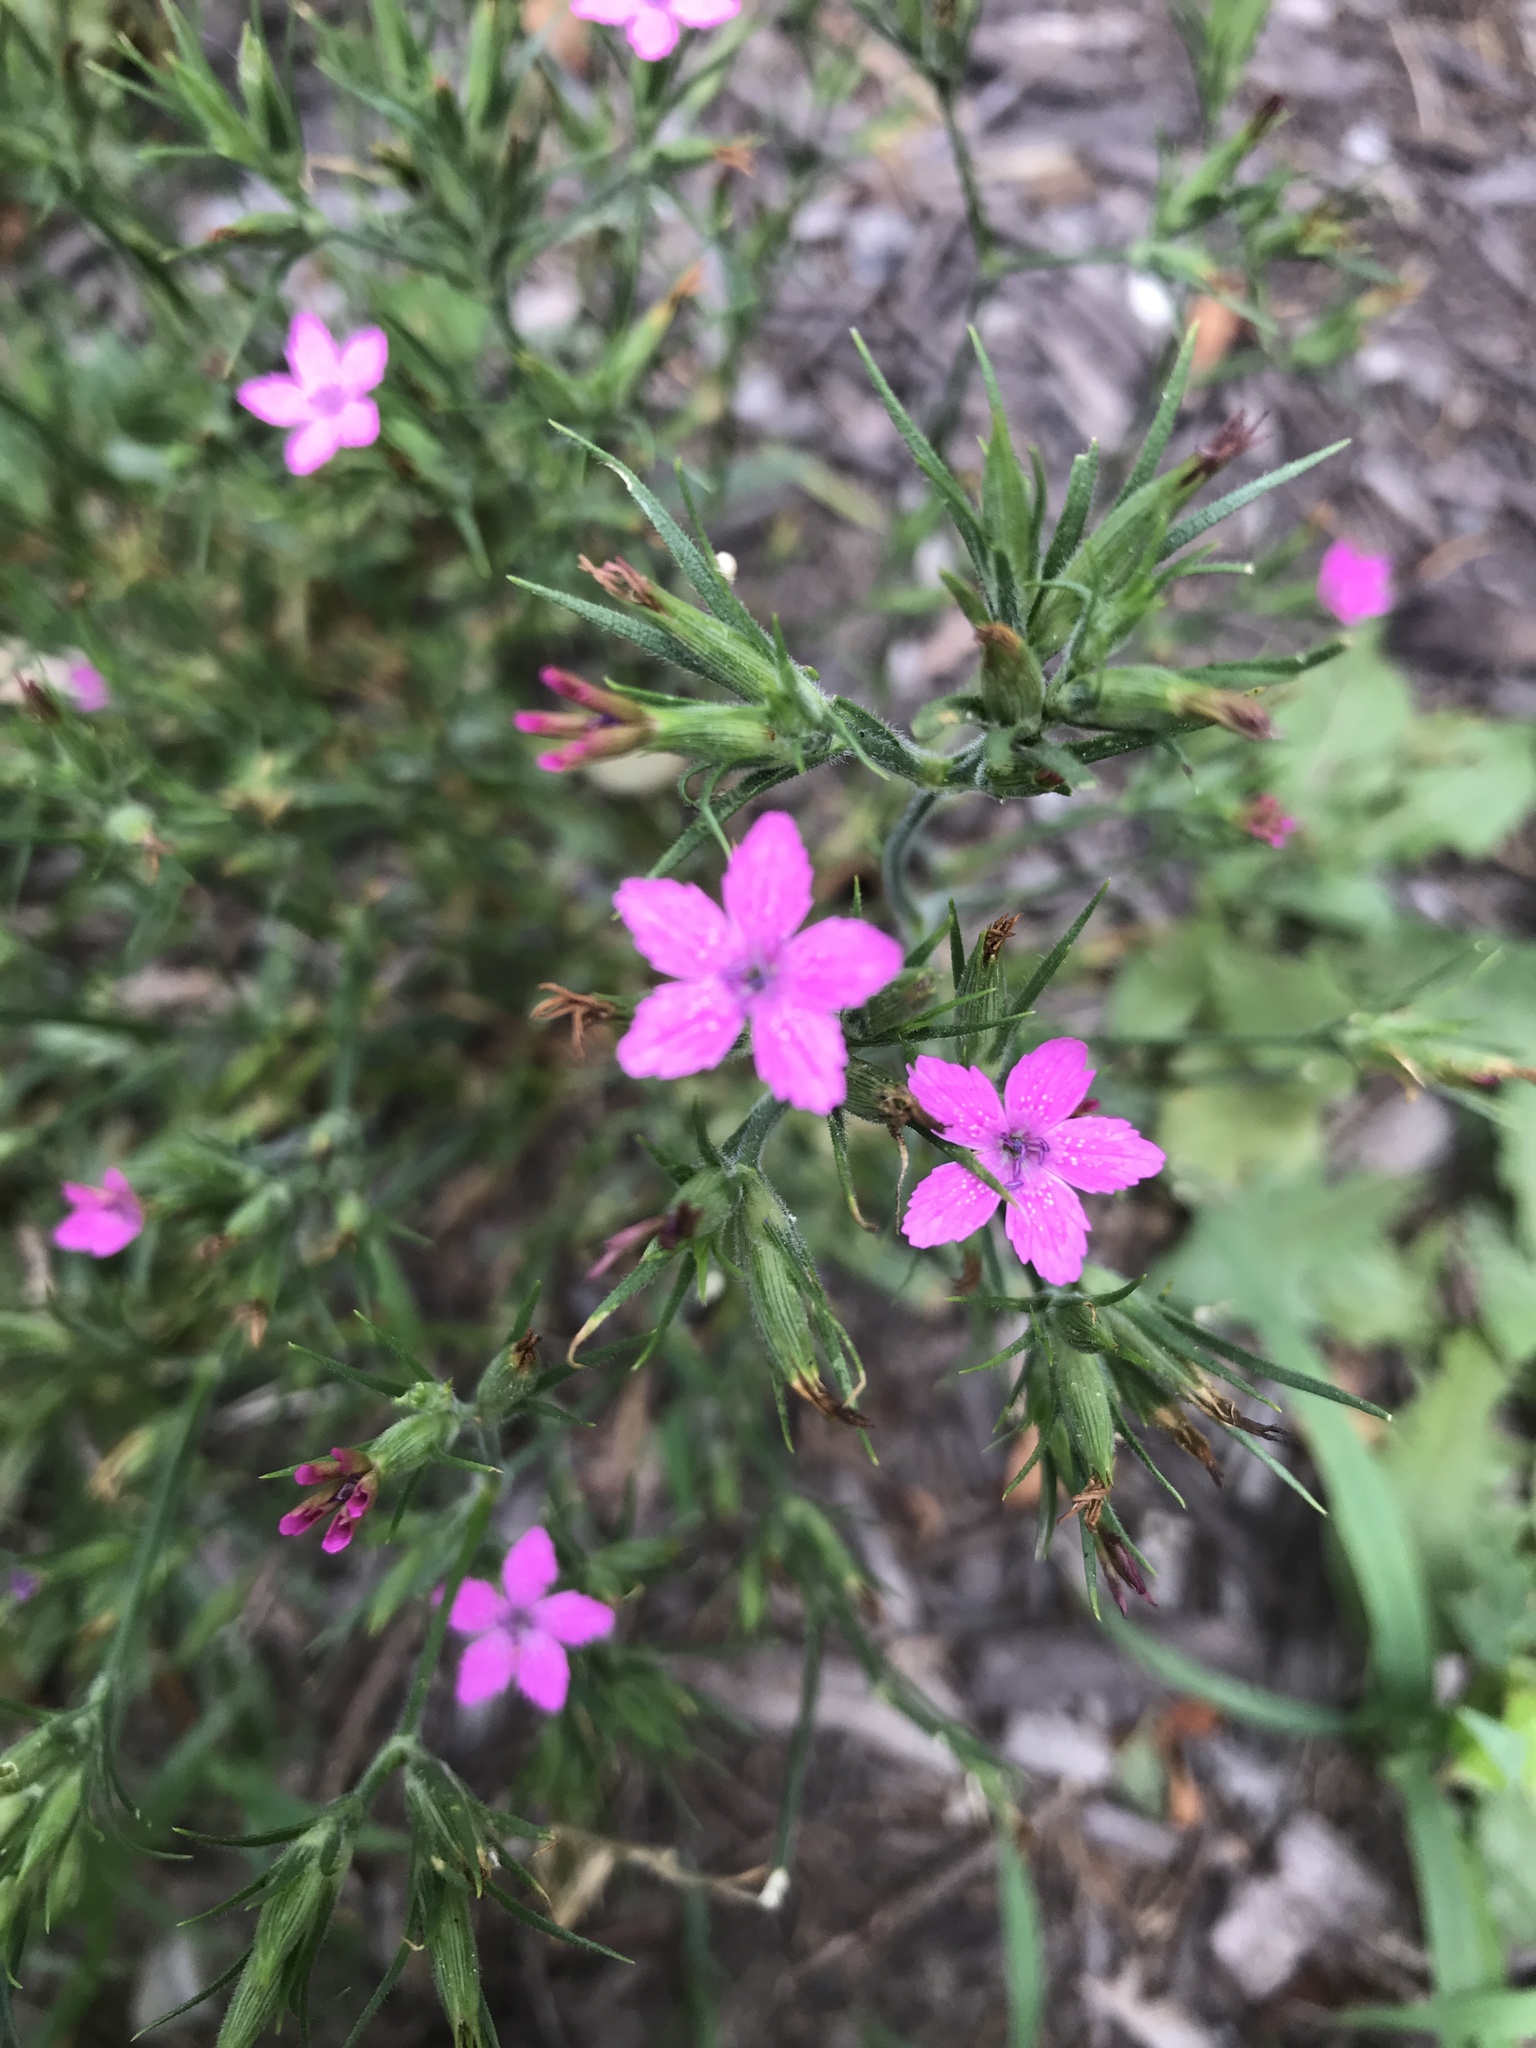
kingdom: Plantae
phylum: Tracheophyta
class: Magnoliopsida
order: Caryophyllales
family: Caryophyllaceae
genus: Dianthus
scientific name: Dianthus armeria
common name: Deptford pink
